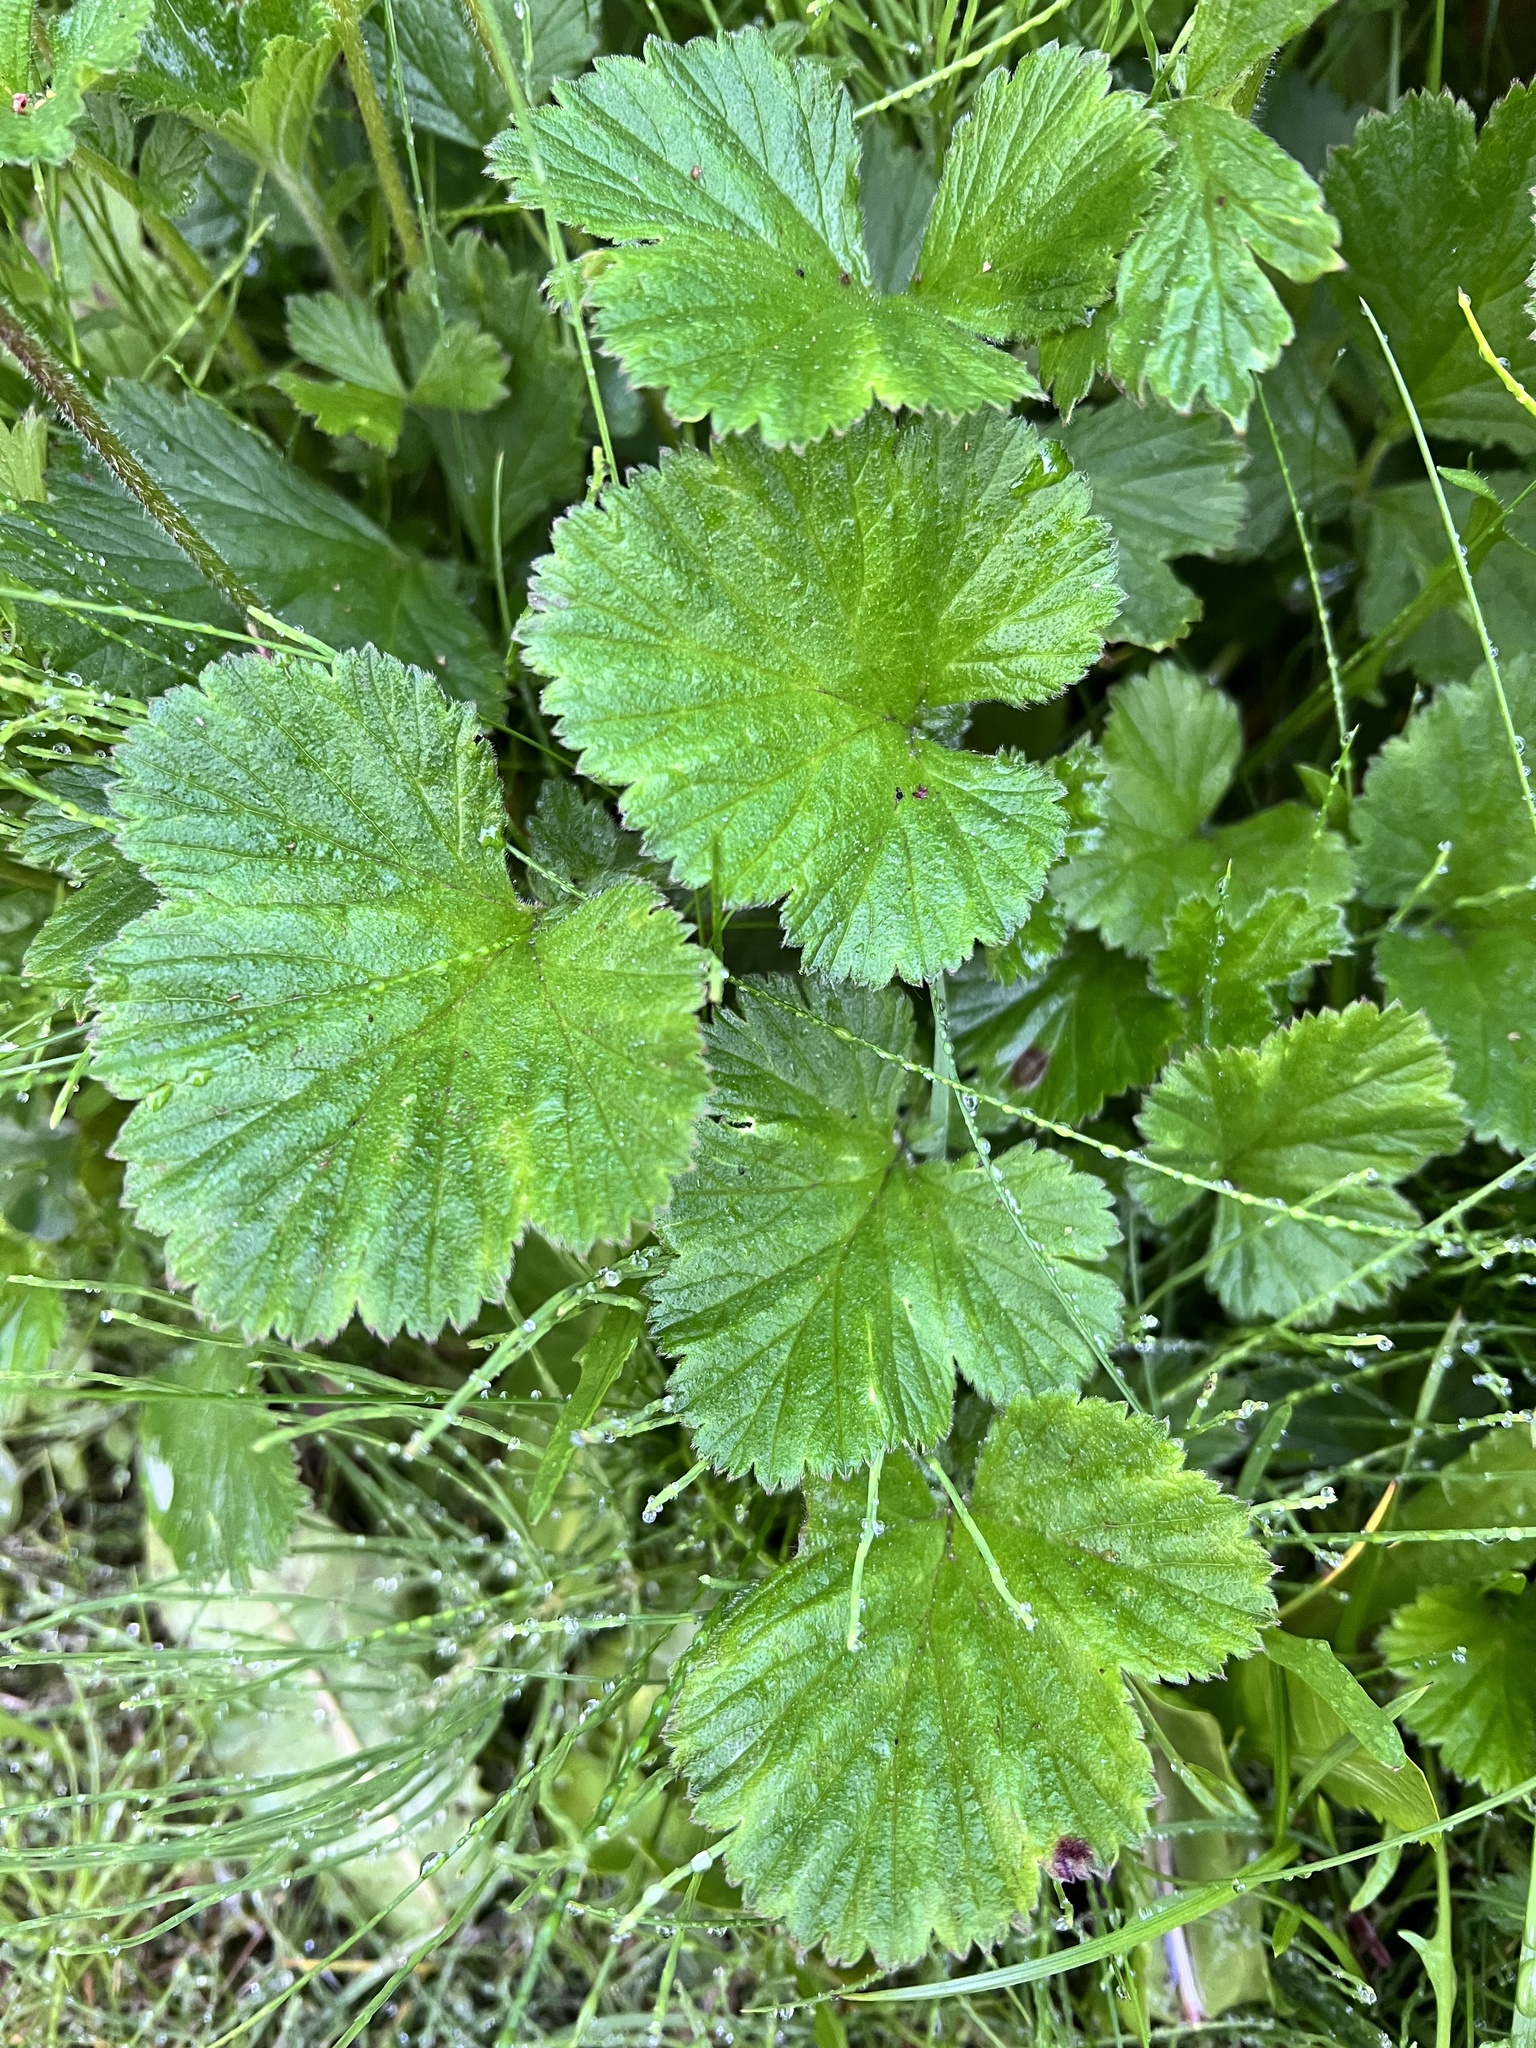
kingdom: Plantae
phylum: Tracheophyta
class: Magnoliopsida
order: Rosales
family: Rosaceae
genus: Geum
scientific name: Geum rivale
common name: Water avens
